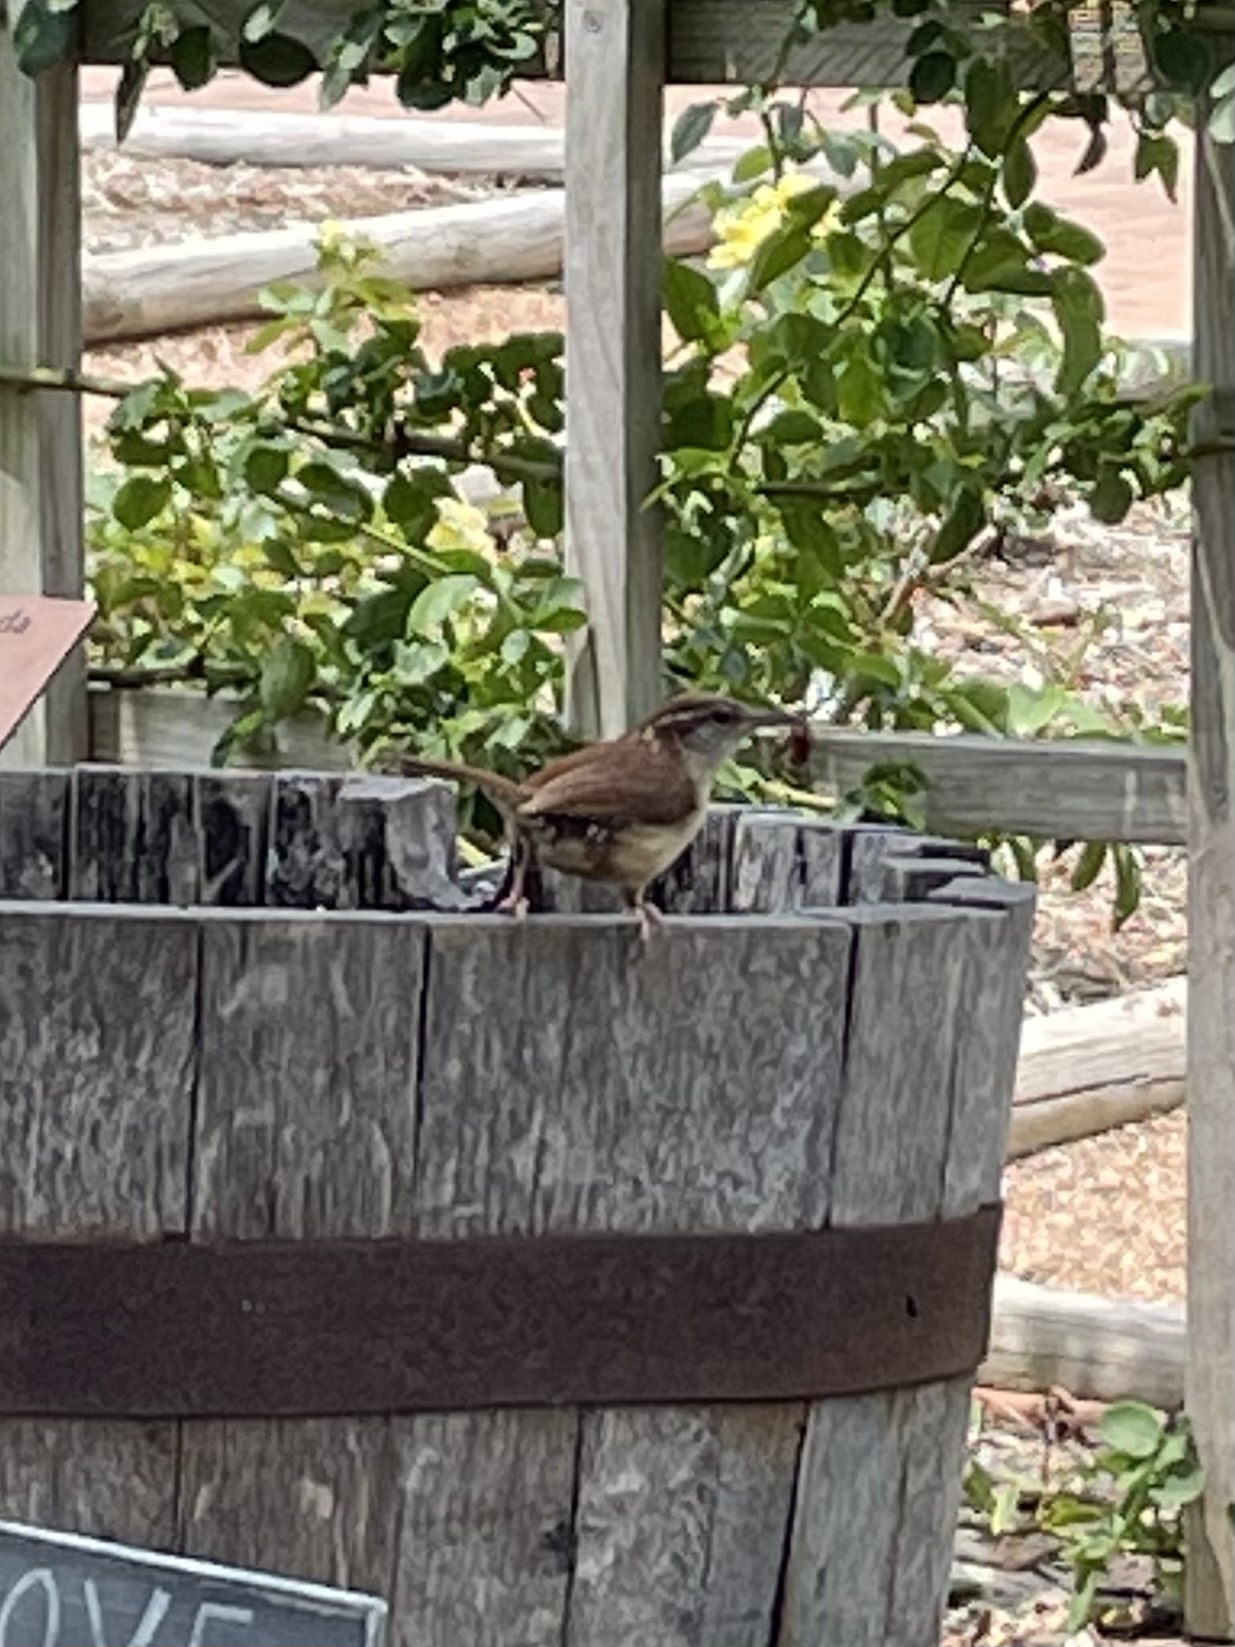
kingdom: Animalia
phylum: Chordata
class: Aves
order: Passeriformes
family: Troglodytidae
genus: Thryothorus
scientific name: Thryothorus ludovicianus
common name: Carolina wren
